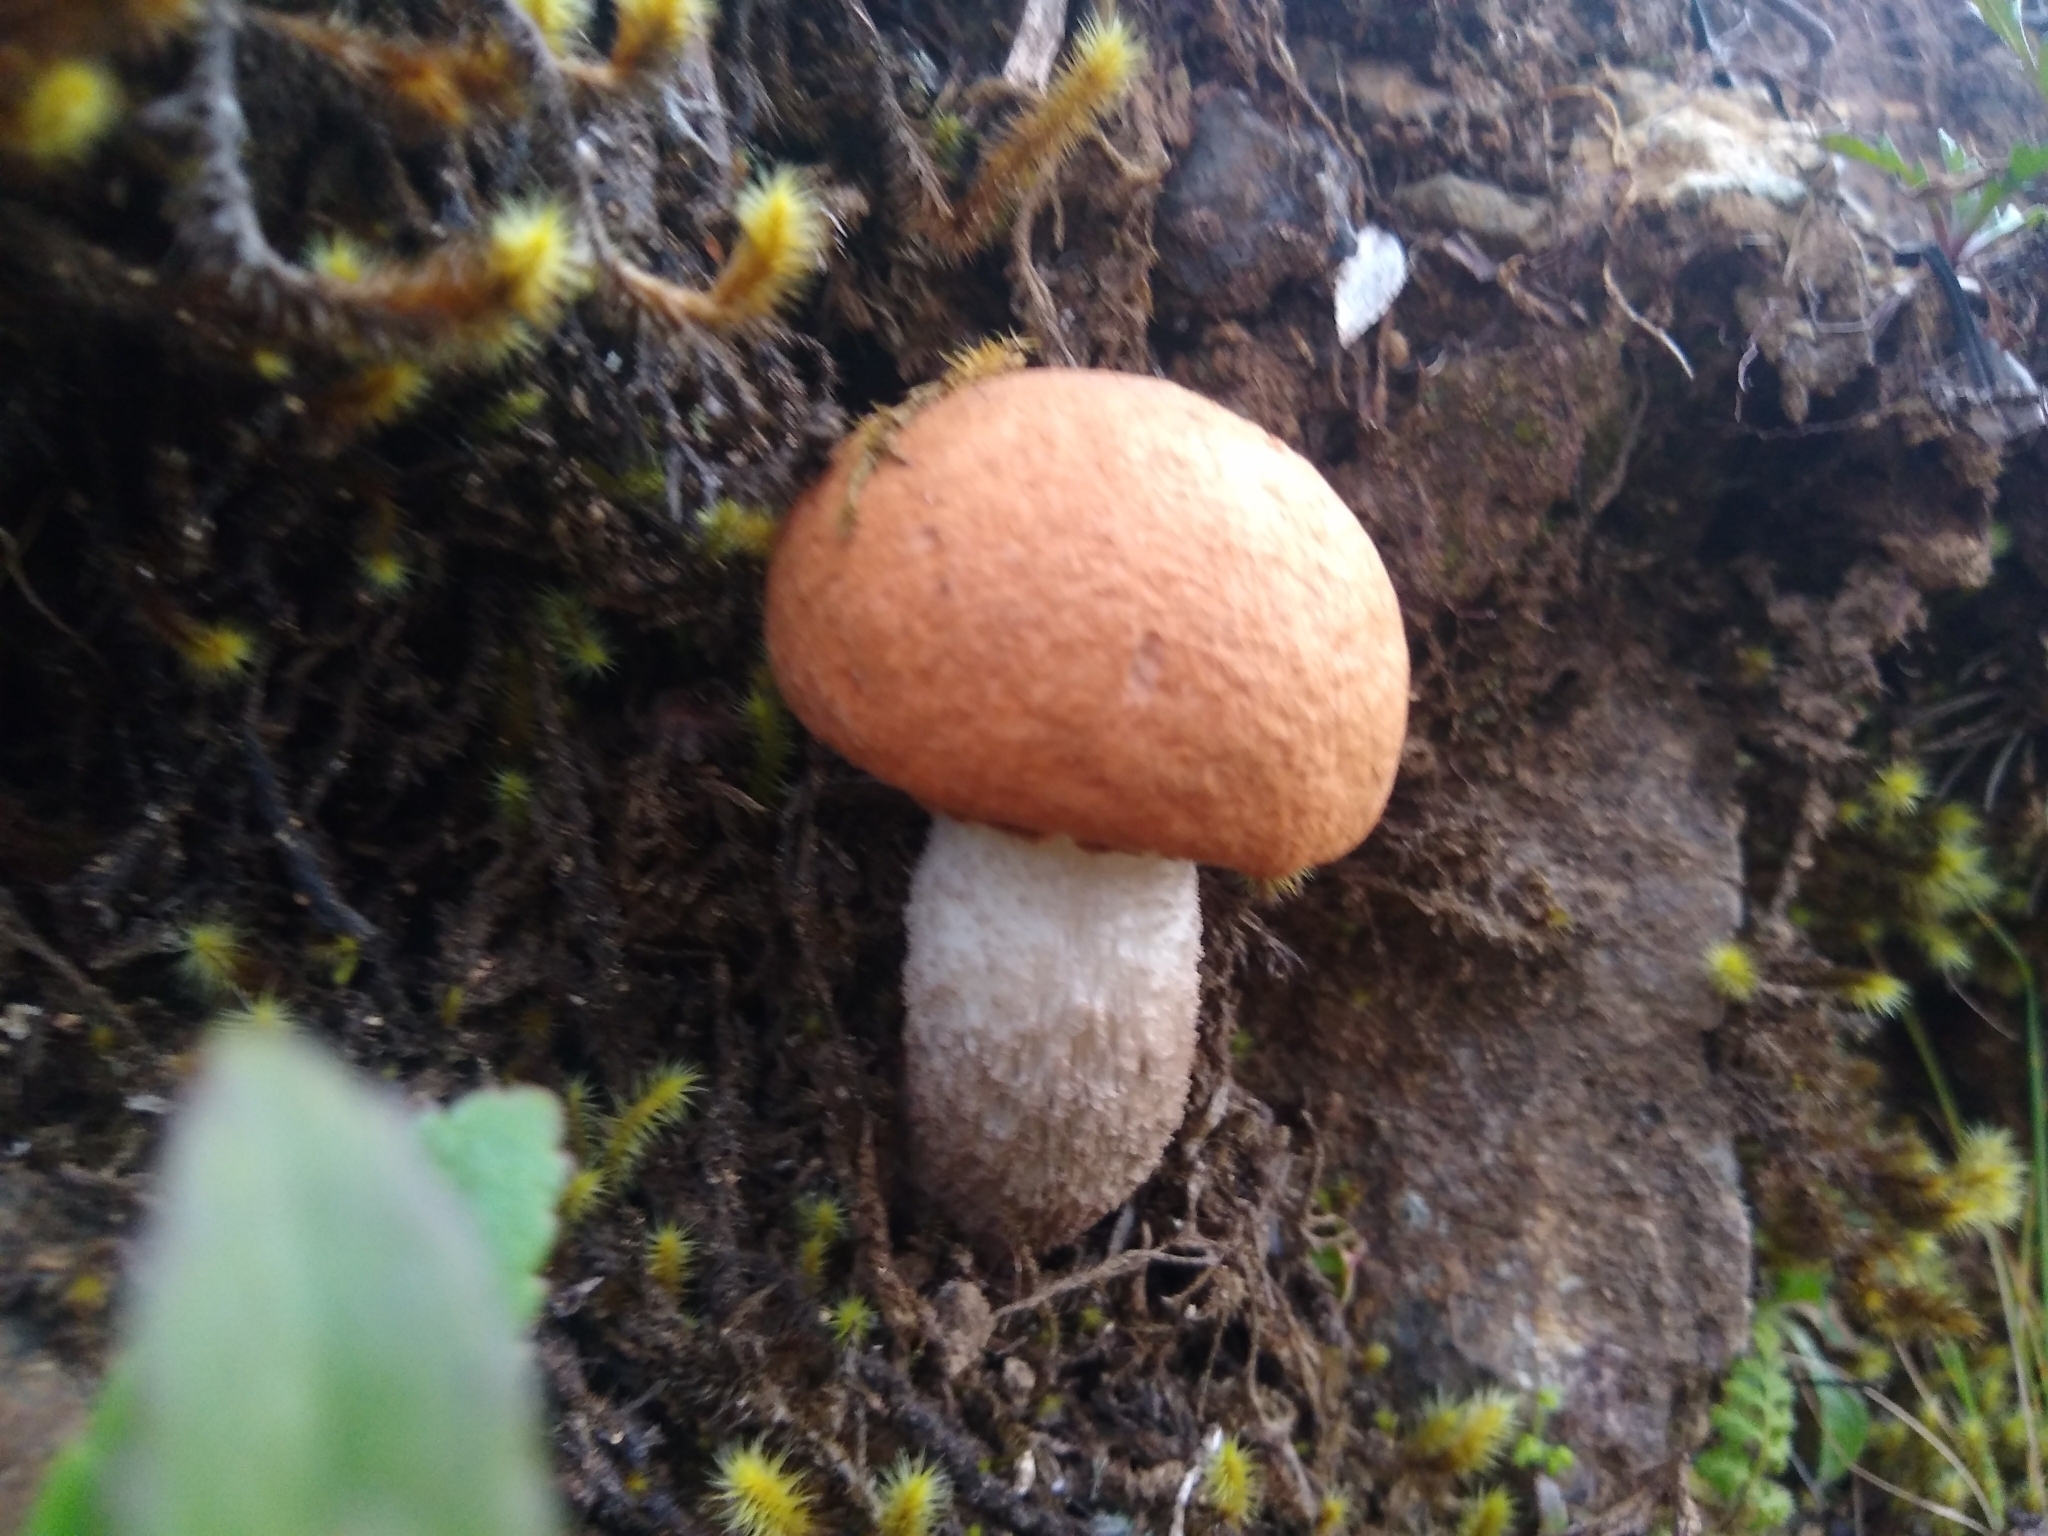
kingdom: Fungi
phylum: Basidiomycota
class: Agaricomycetes
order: Boletales
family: Boletaceae
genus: Leccinum
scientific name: Leccinum monticola
